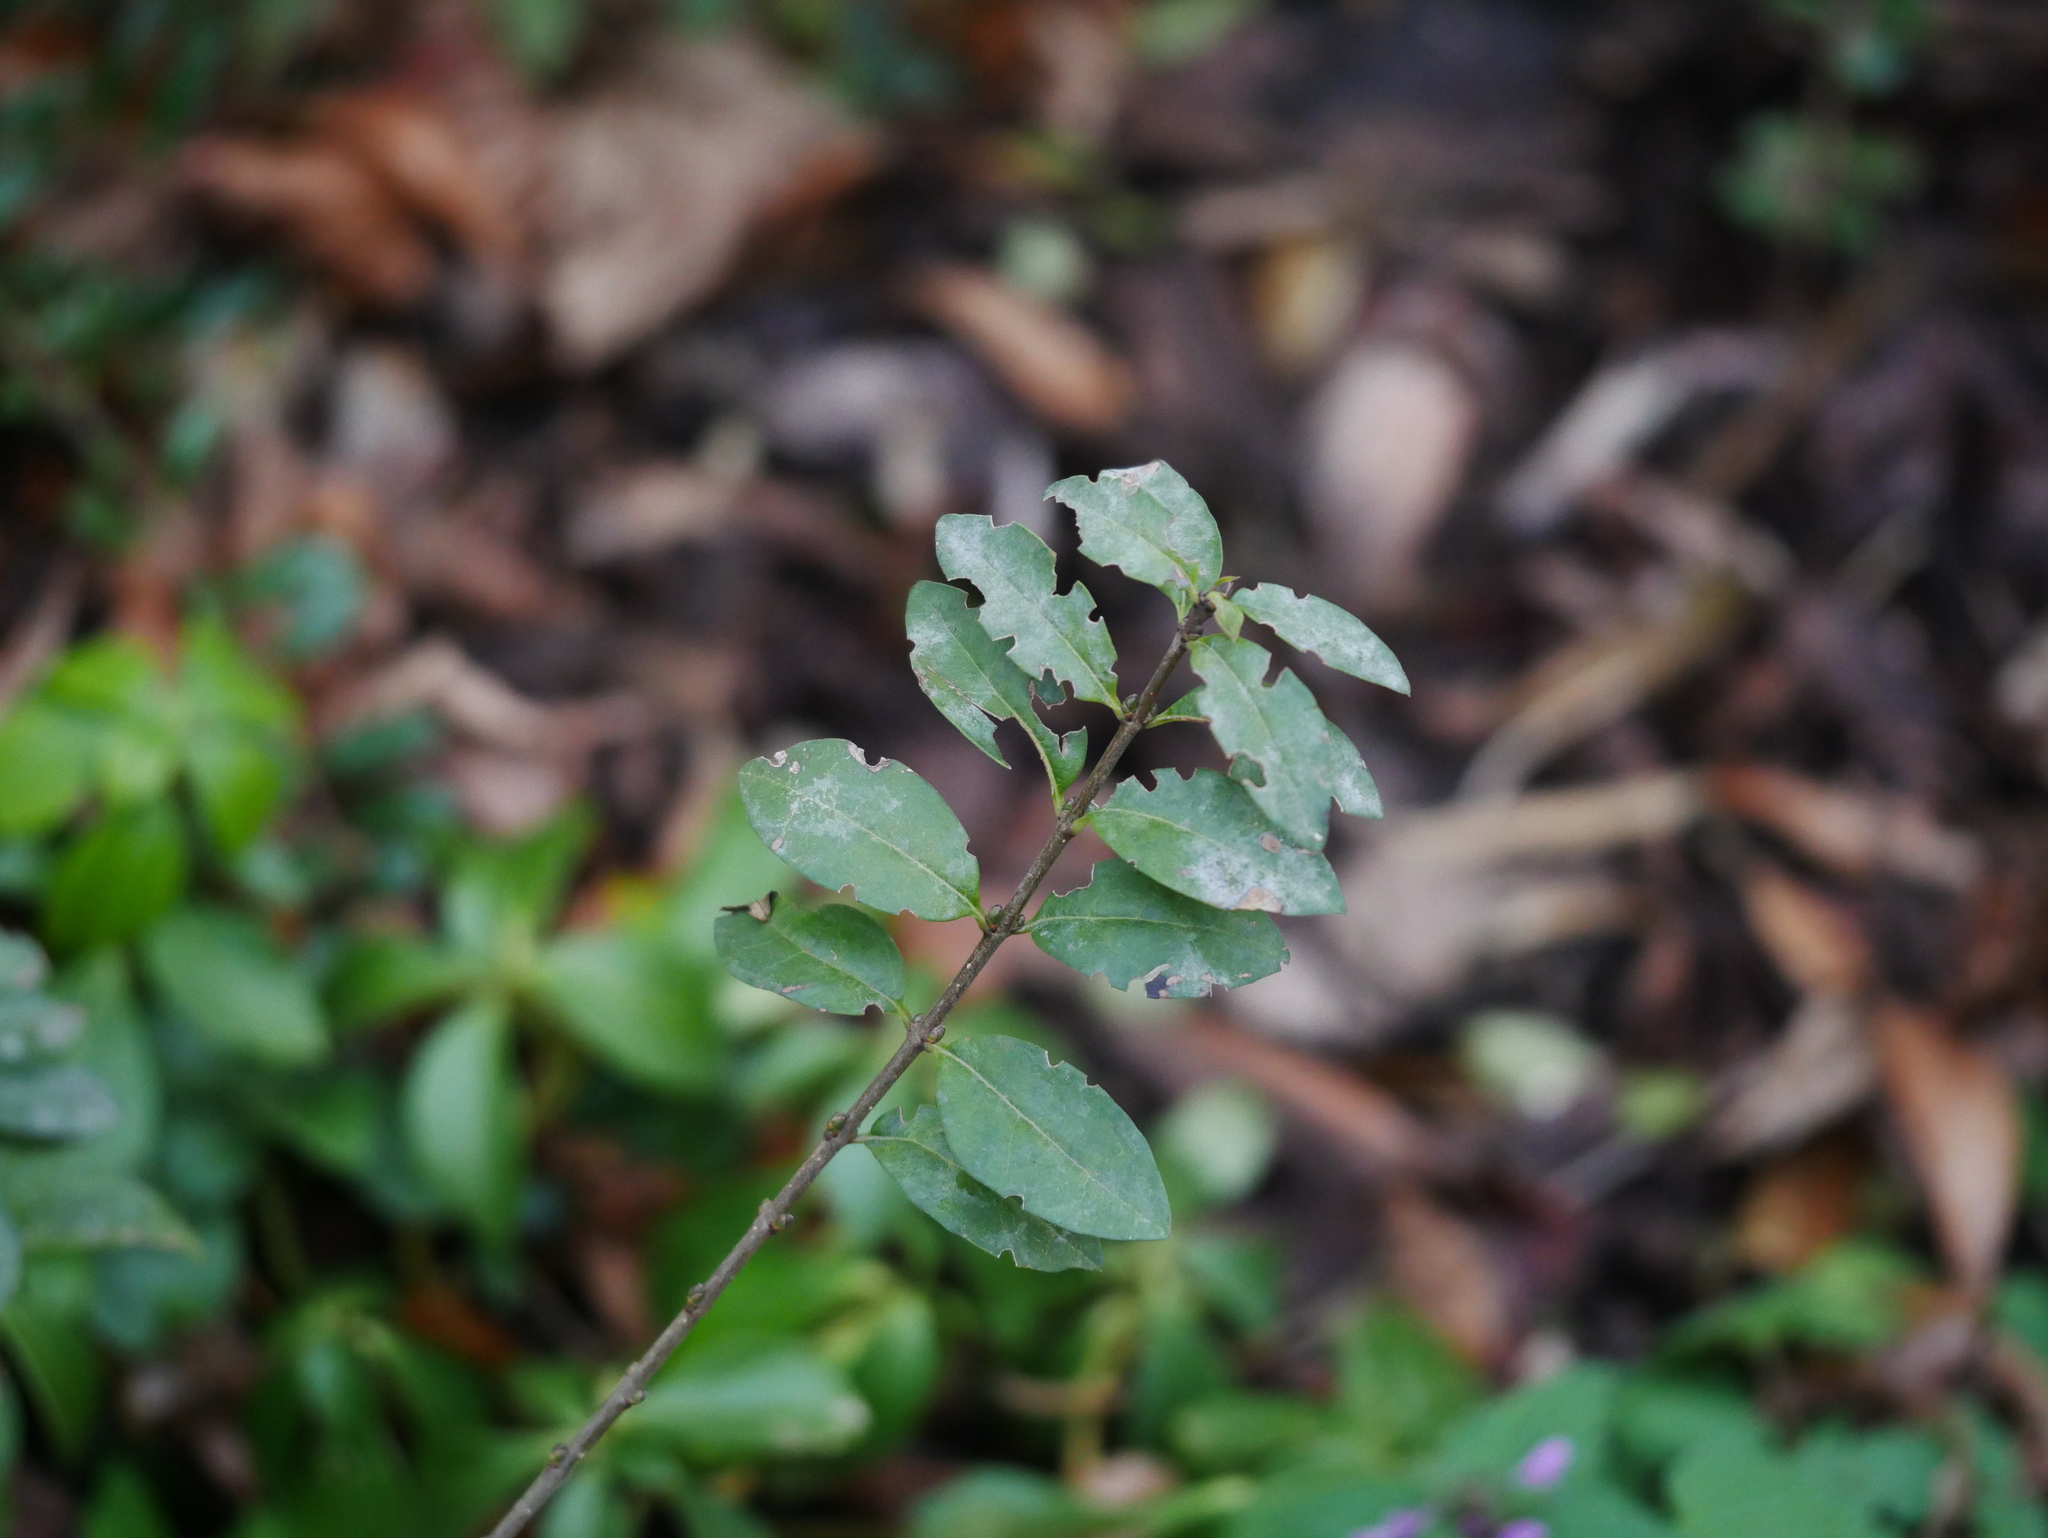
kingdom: Plantae
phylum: Tracheophyta
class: Magnoliopsida
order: Lamiales
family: Oleaceae
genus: Ligustrum
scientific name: Ligustrum vulgare
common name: Wild privet
